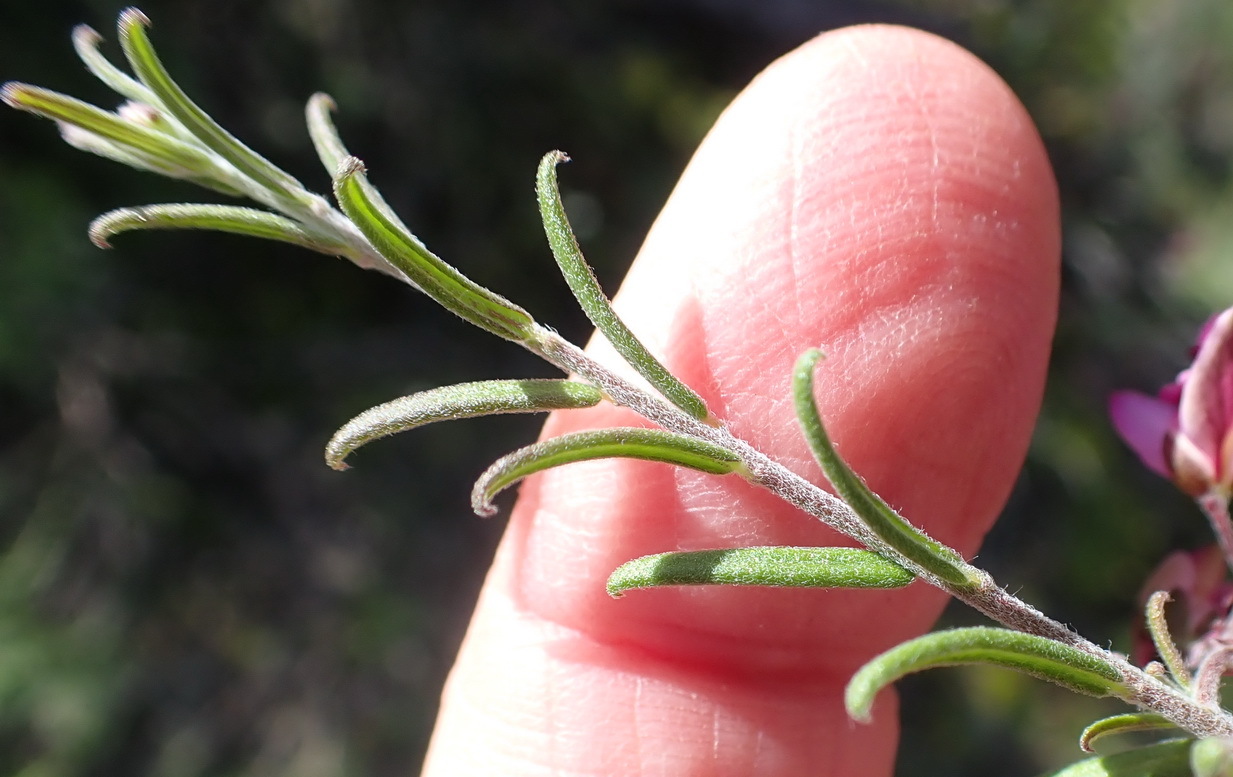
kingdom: Plantae
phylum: Tracheophyta
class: Magnoliopsida
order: Fabales
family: Polygalaceae
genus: Polygala
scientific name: Polygala scabra
